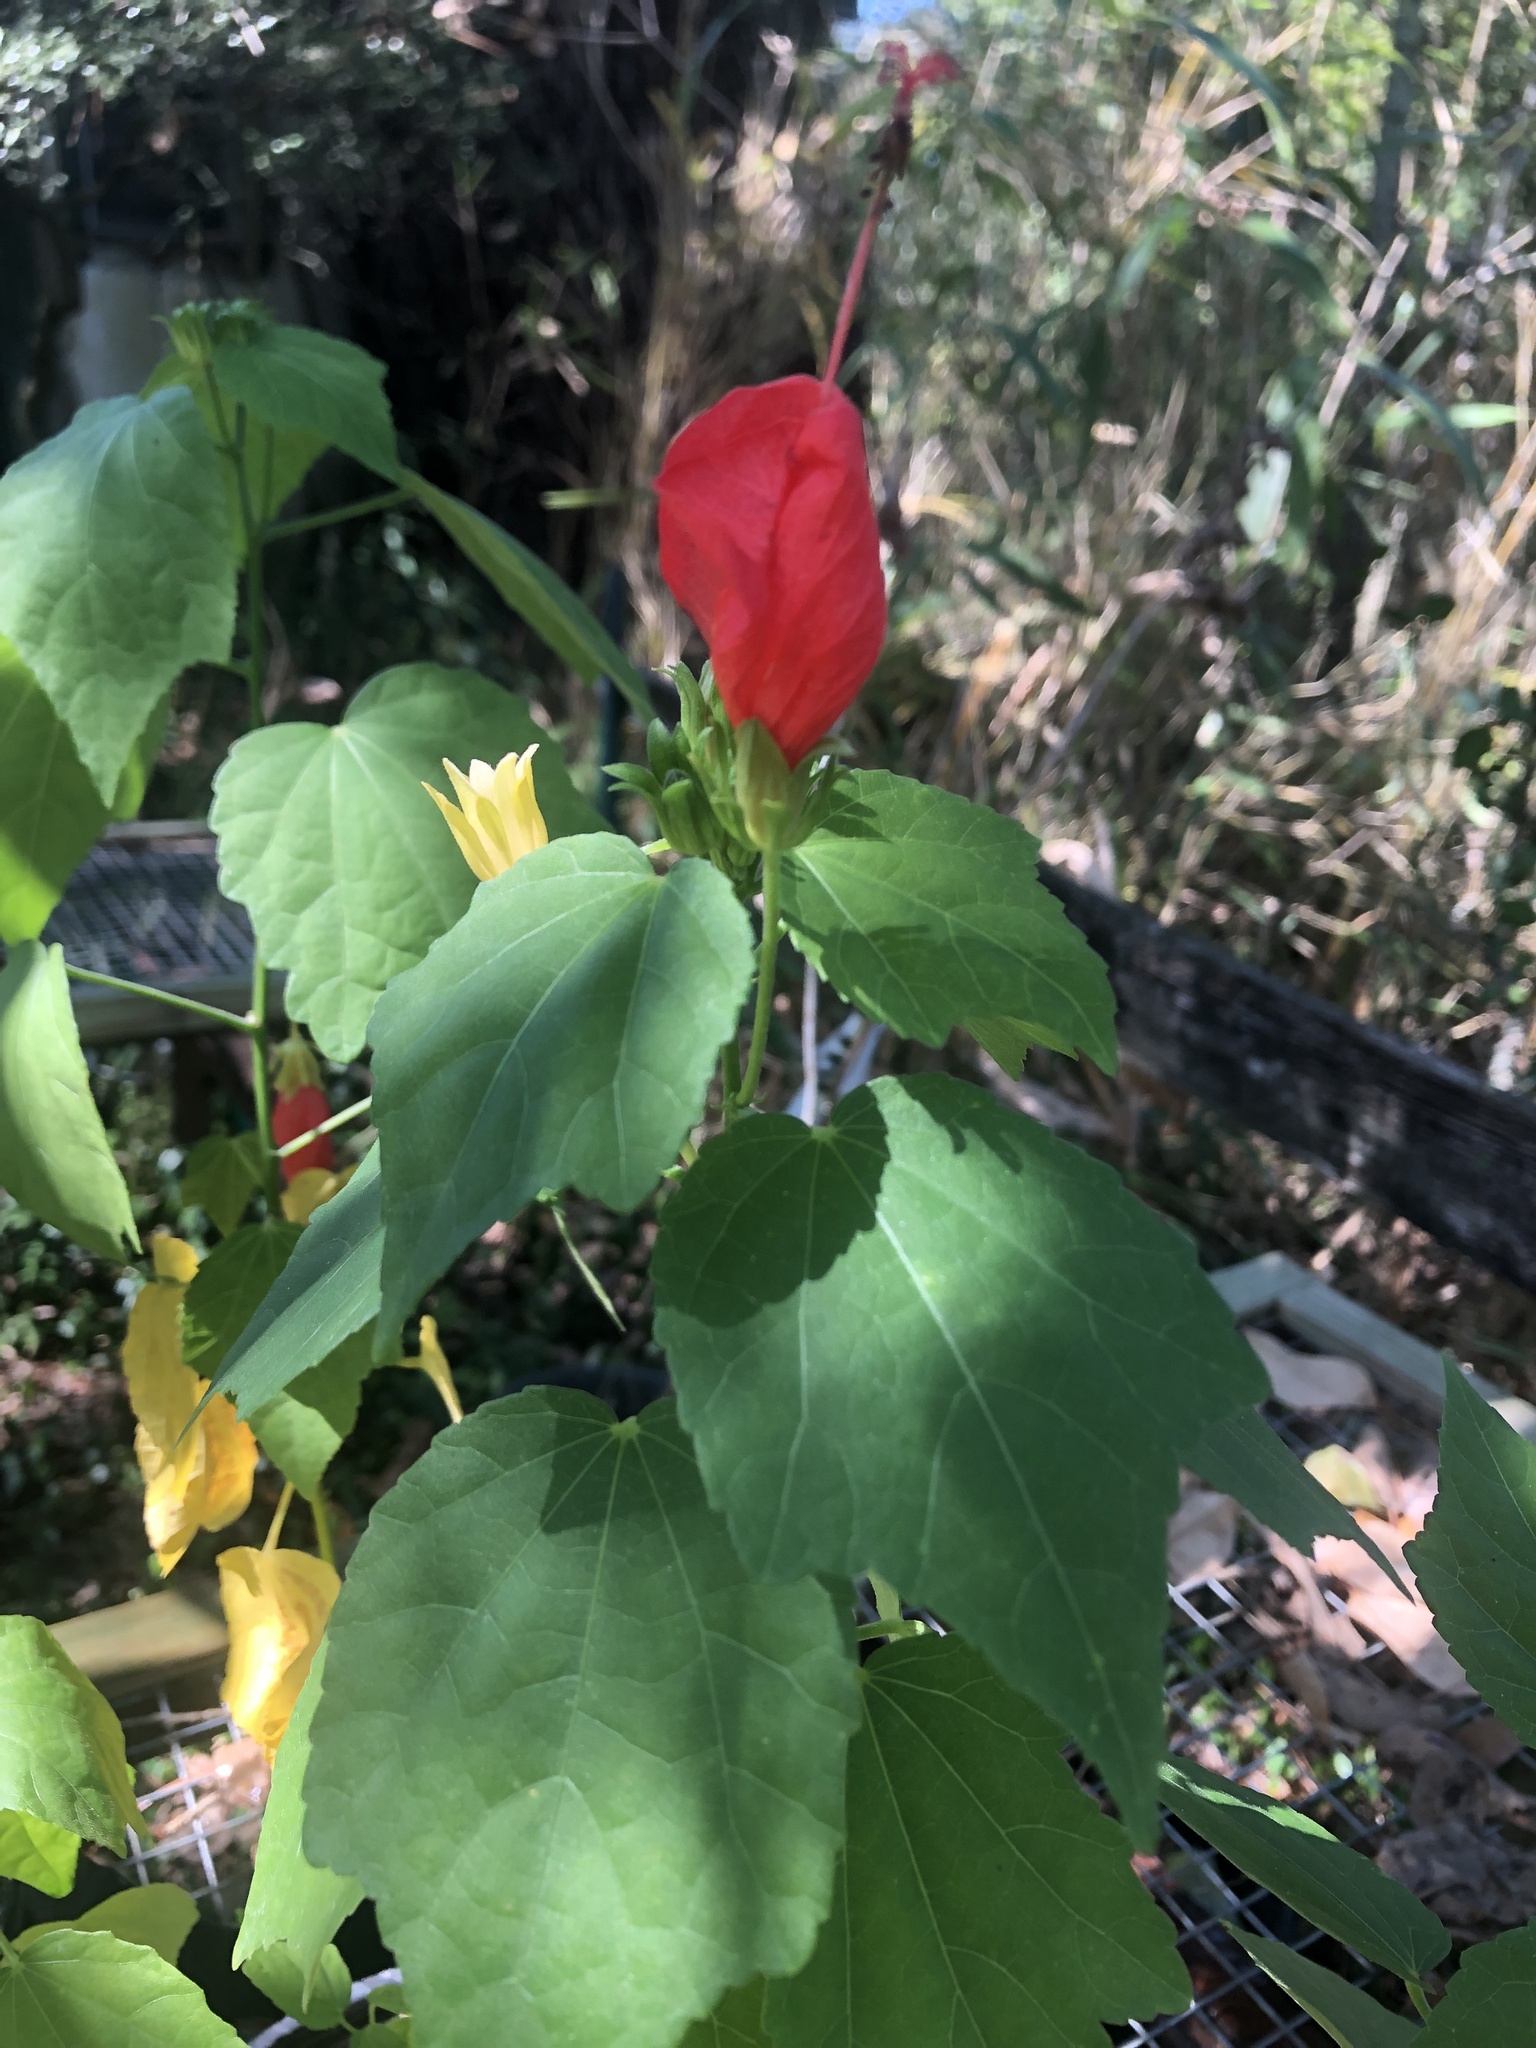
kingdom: Plantae
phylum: Tracheophyta
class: Magnoliopsida
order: Malvales
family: Malvaceae
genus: Malvaviscus
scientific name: Malvaviscus arboreus
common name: Wax mallow
